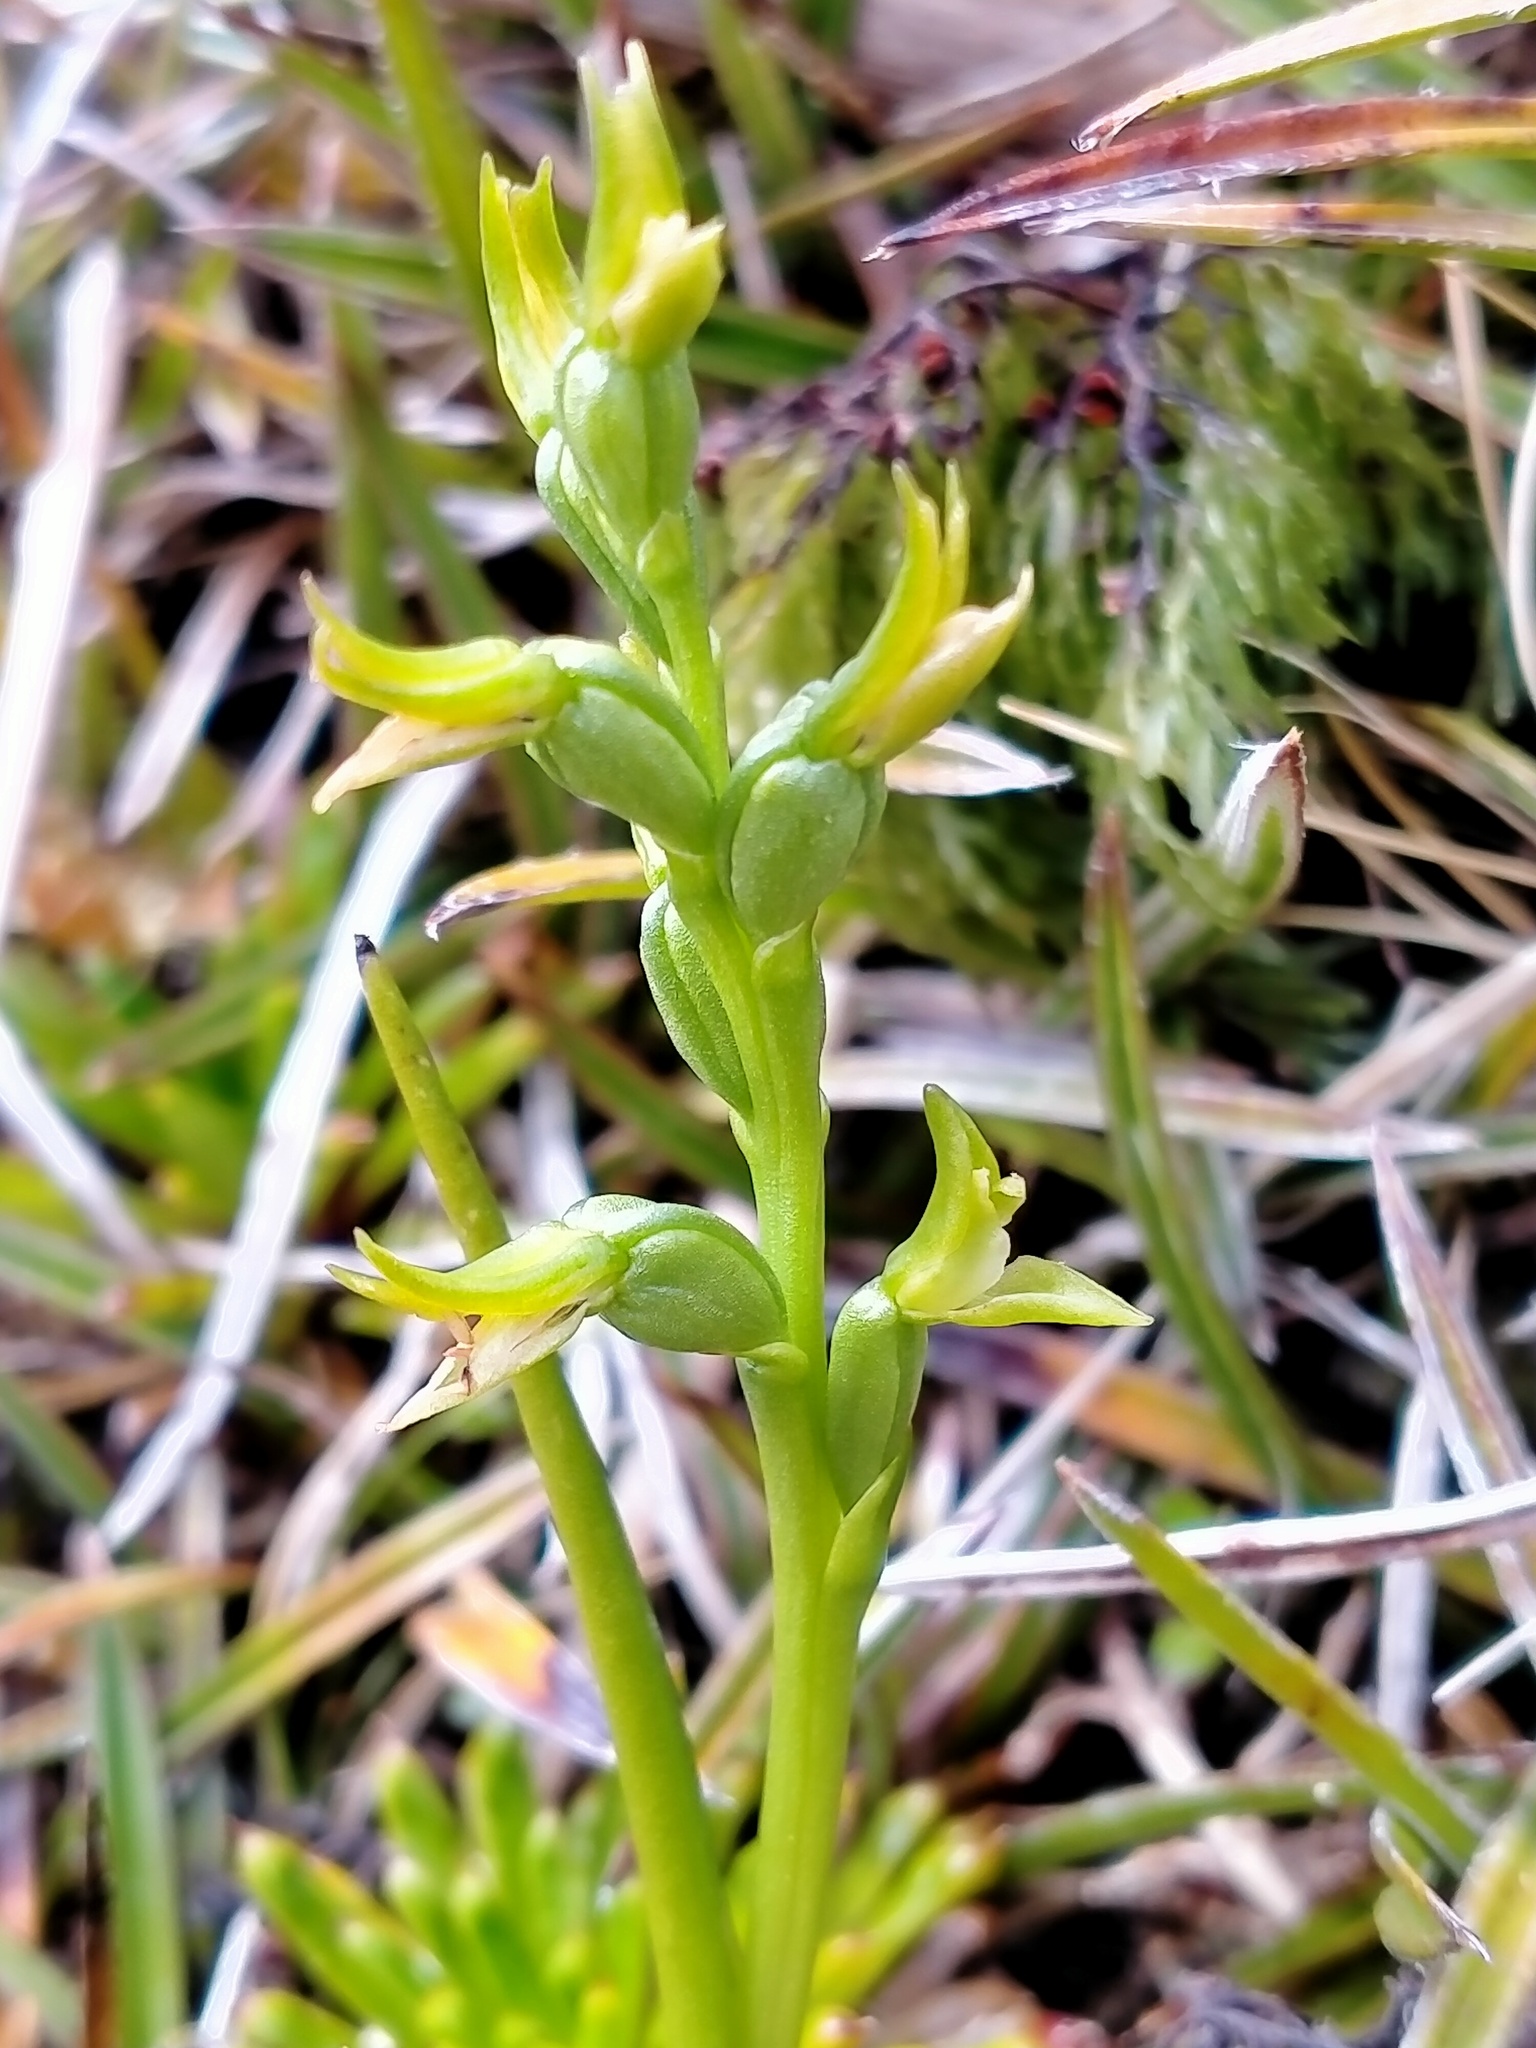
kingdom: Plantae
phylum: Tracheophyta
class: Liliopsida
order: Asparagales
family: Orchidaceae
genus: Prasophyllum
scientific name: Prasophyllum colensoi
